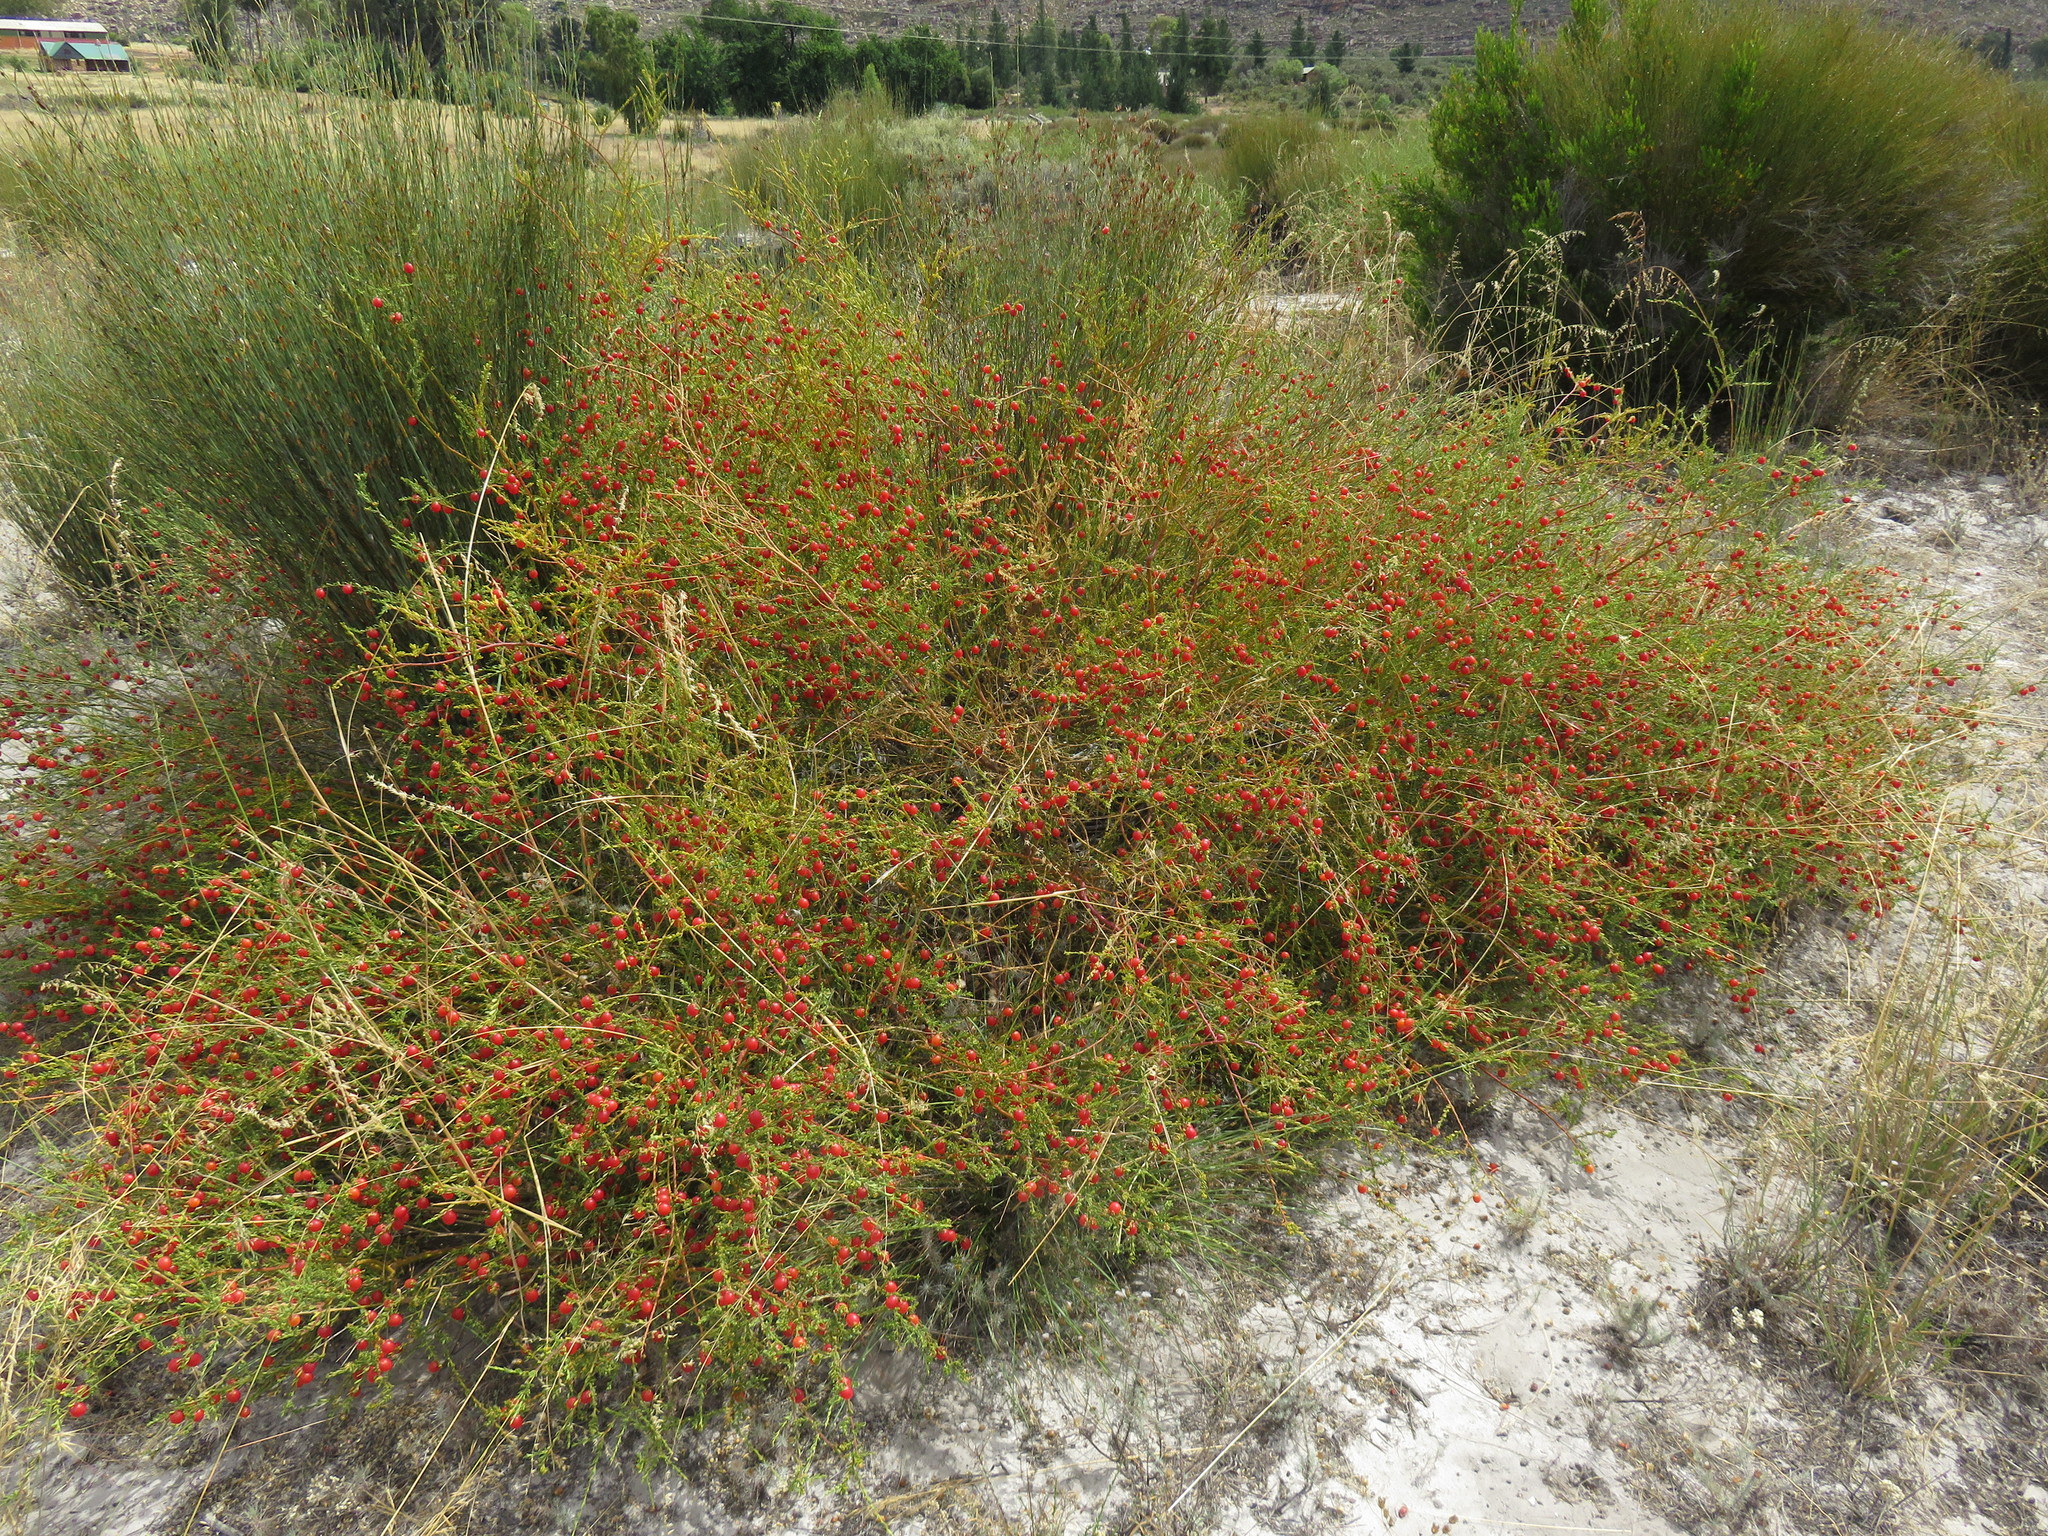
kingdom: Plantae
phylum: Tracheophyta
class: Magnoliopsida
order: Fabales
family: Polygalaceae
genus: Muraltia
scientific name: Muraltia spinosa
